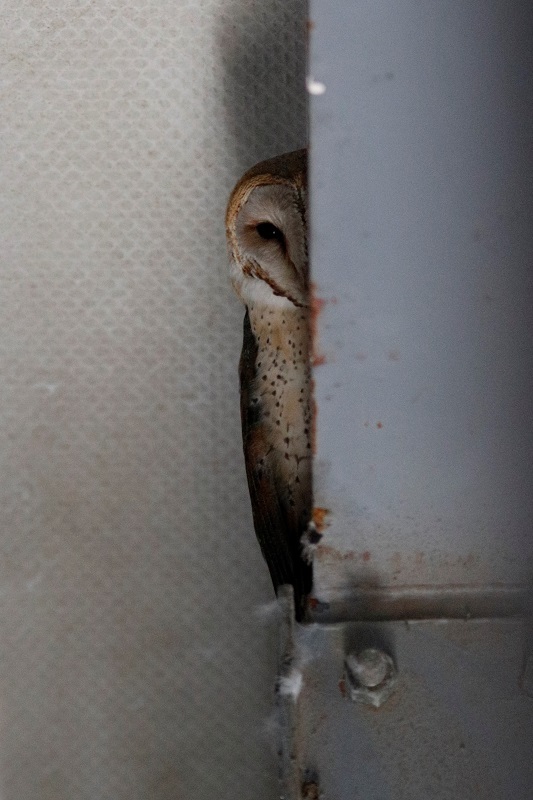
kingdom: Animalia
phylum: Chordata
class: Aves
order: Strigiformes
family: Tytonidae
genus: Tyto
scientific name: Tyto alba
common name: Barn owl
